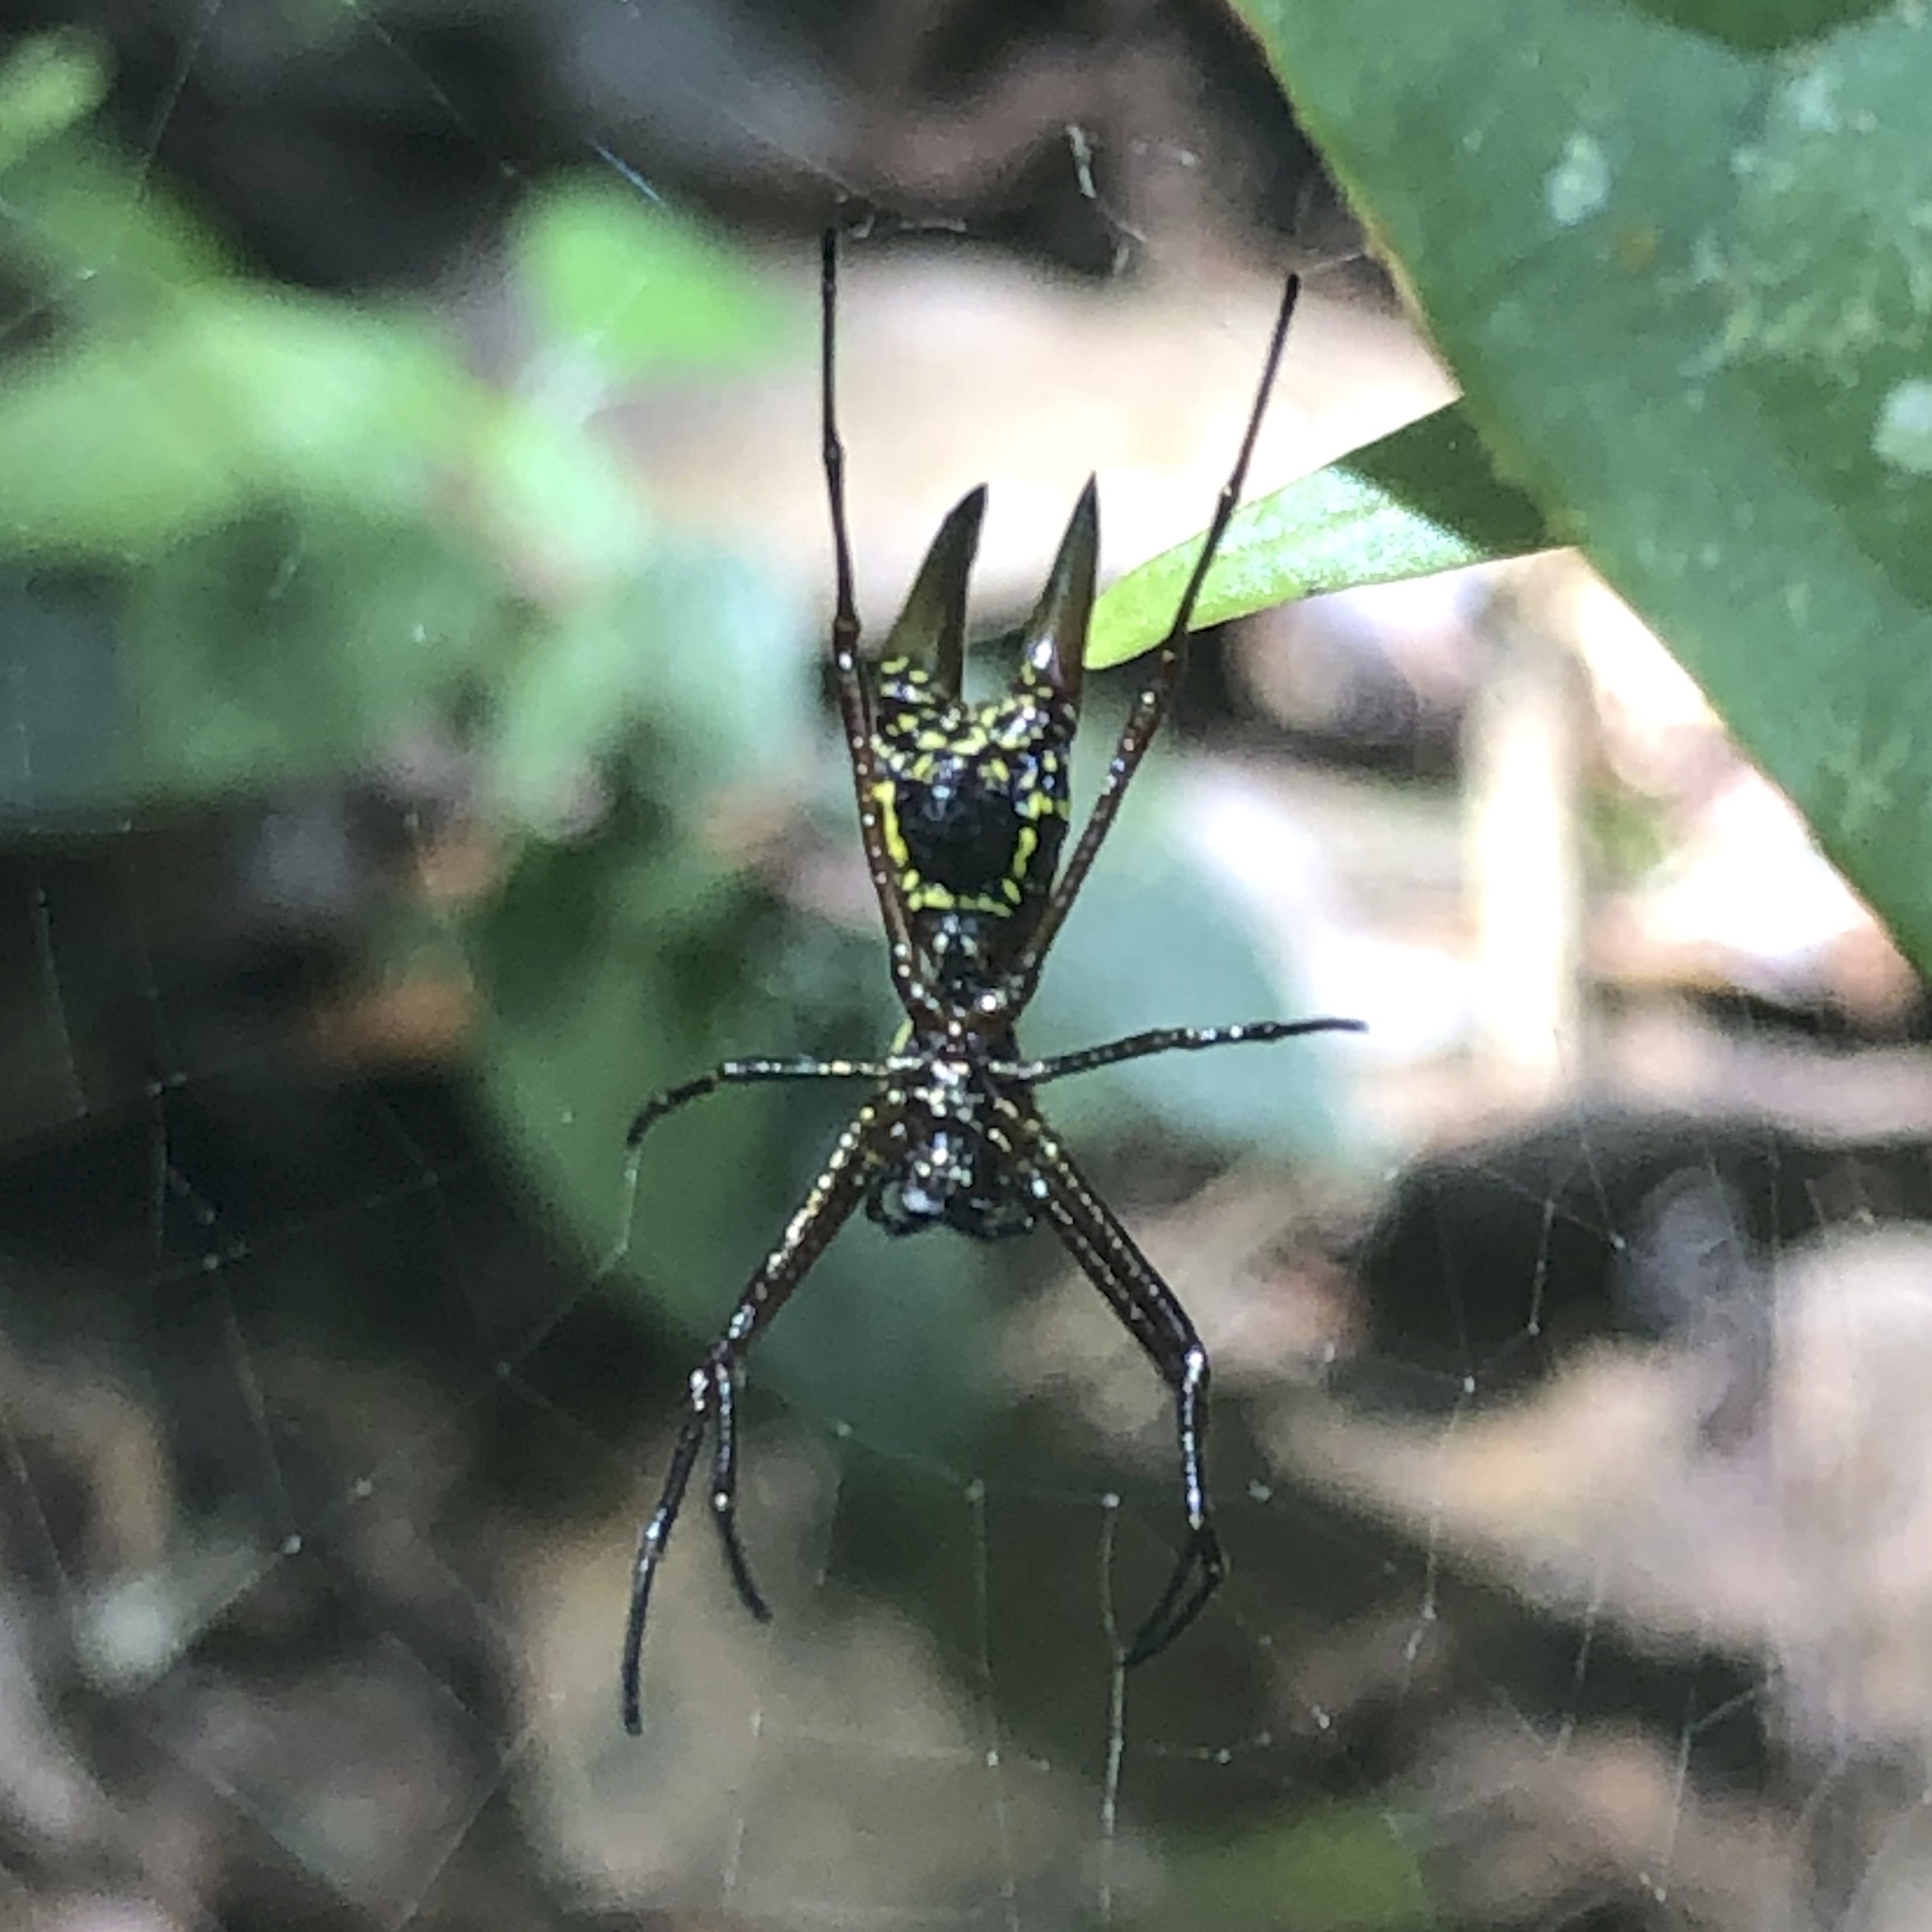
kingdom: Animalia
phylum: Arthropoda
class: Arachnida
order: Araneae
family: Araneidae
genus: Micrathena
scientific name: Micrathena
